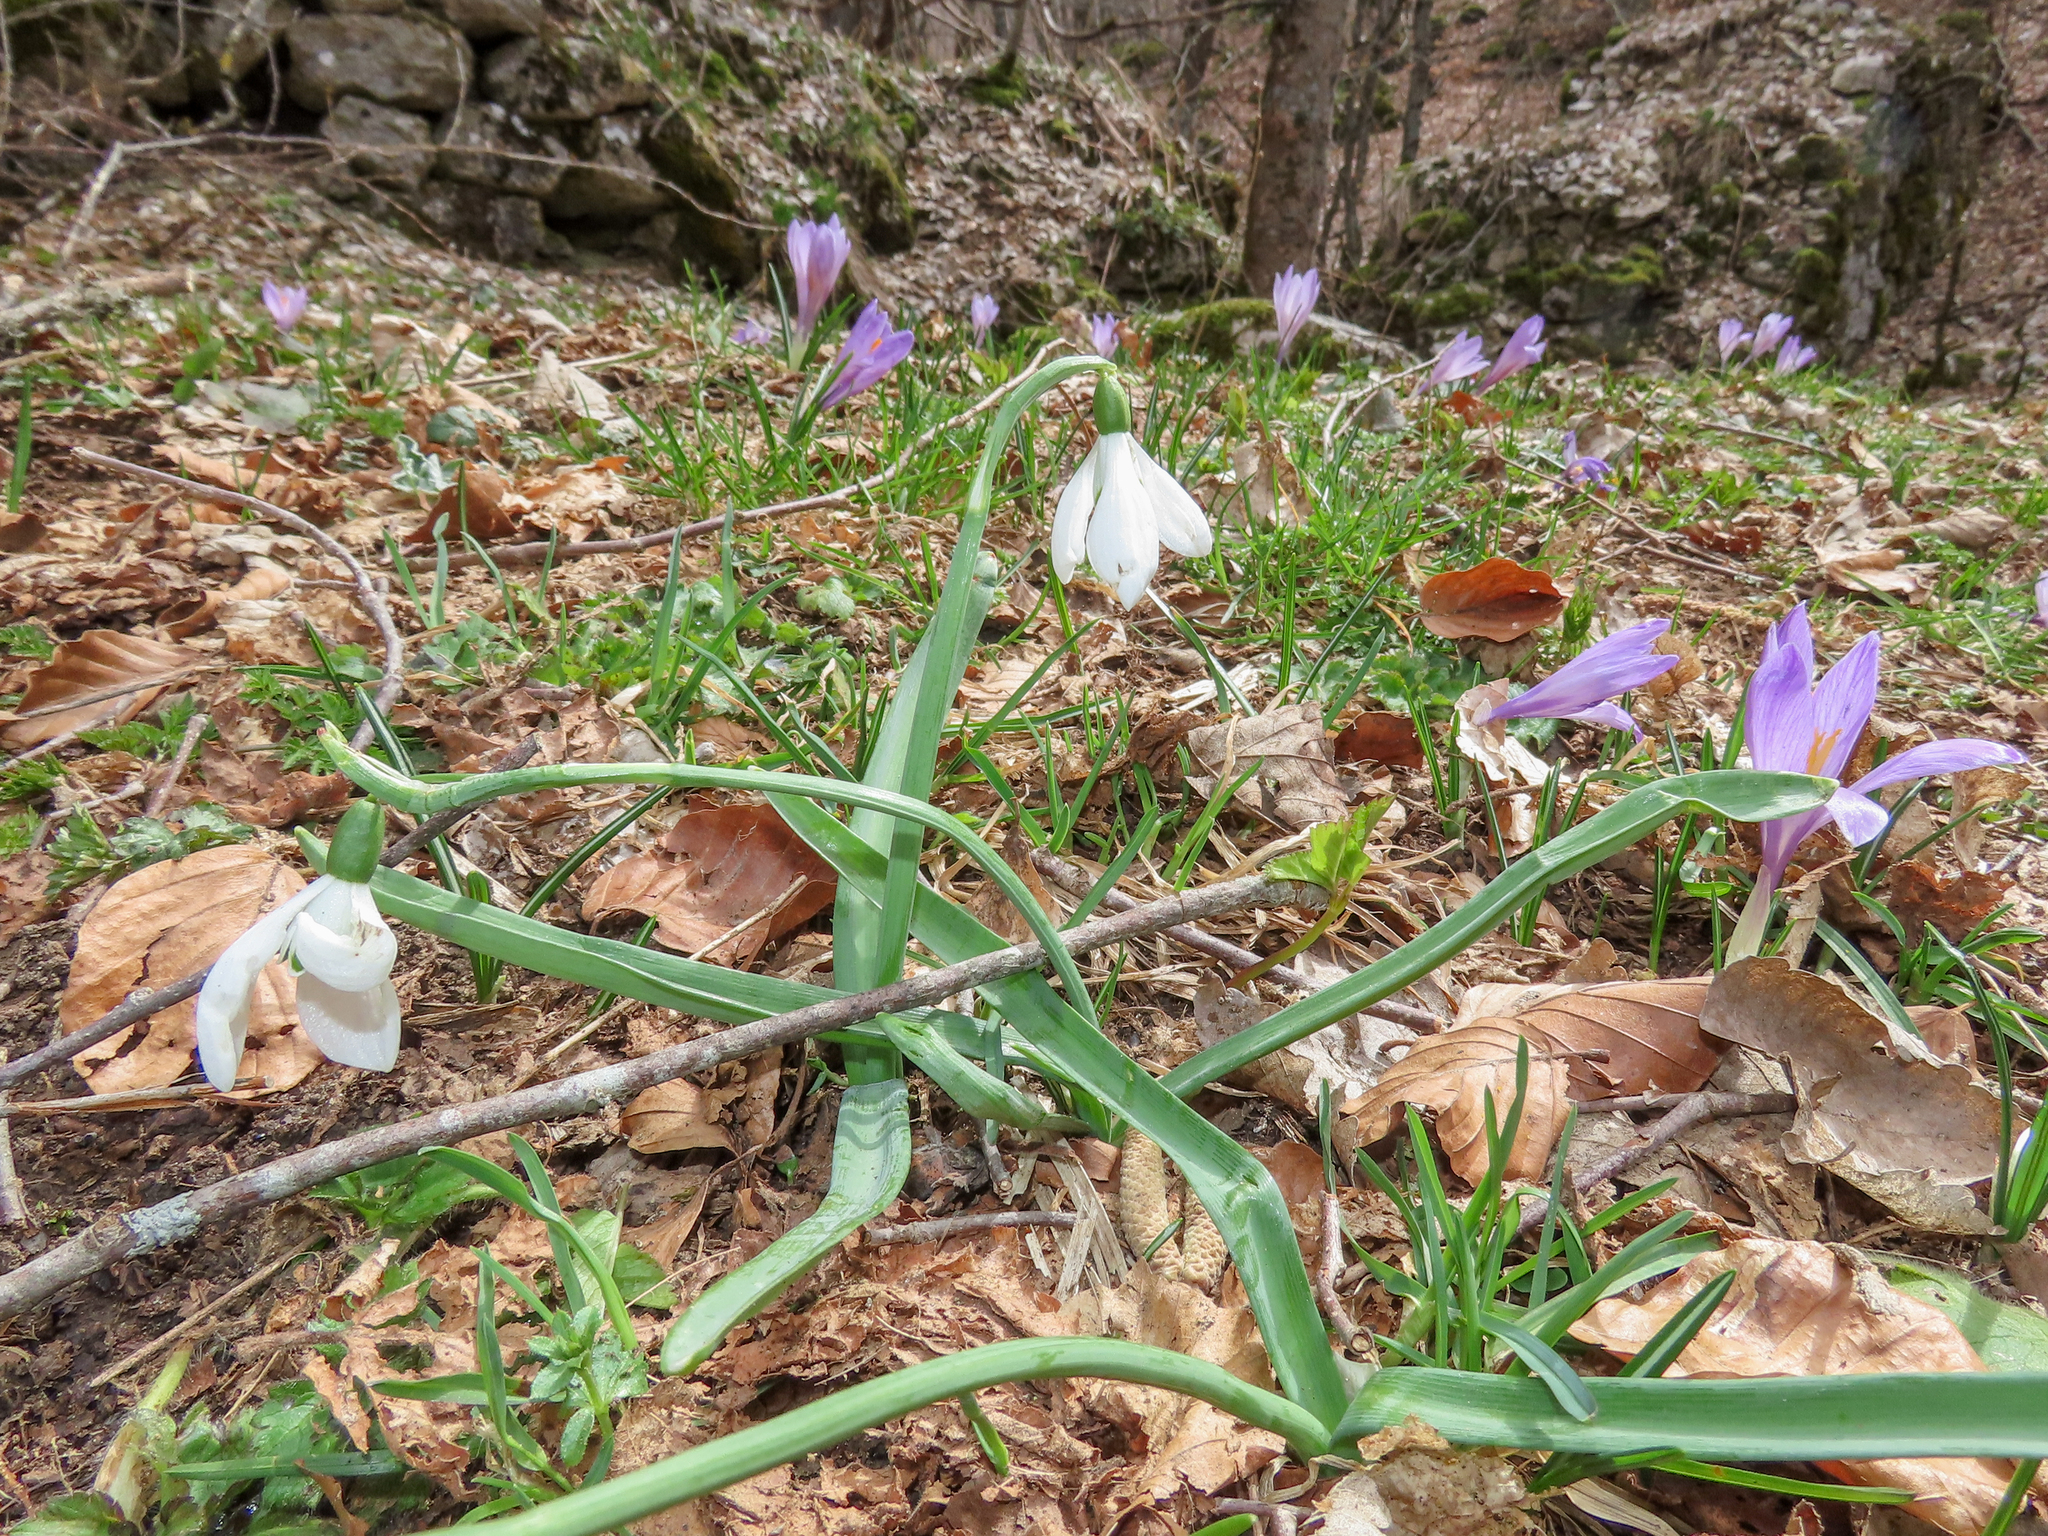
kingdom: Plantae
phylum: Tracheophyta
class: Liliopsida
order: Asparagales
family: Amaryllidaceae
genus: Galanthus
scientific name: Galanthus nivalis
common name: Snowdrop
